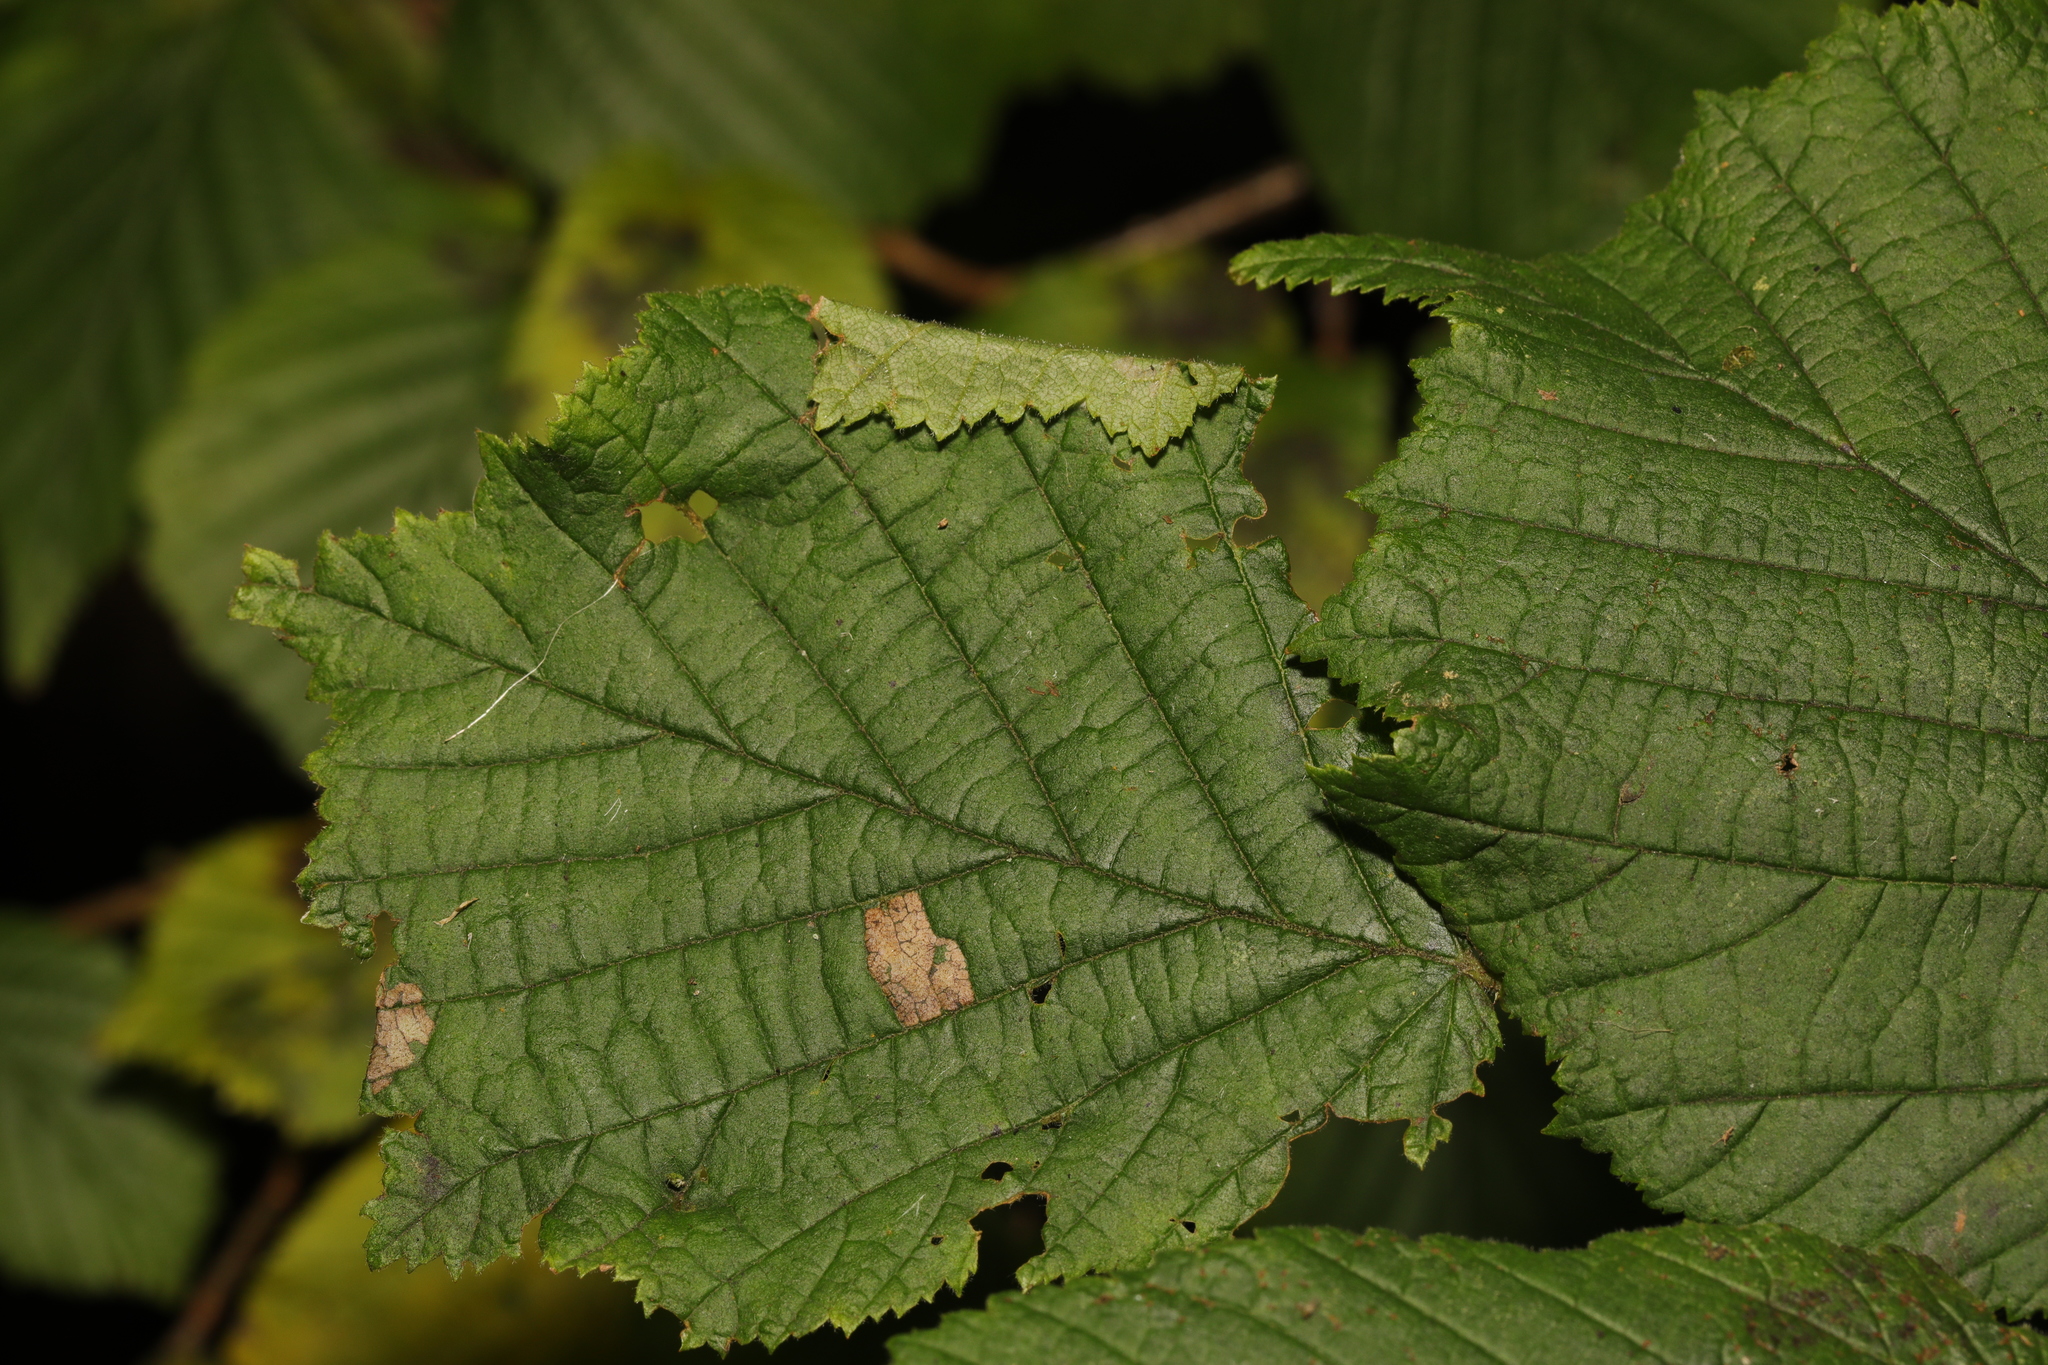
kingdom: Animalia
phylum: Arthropoda
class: Insecta
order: Lepidoptera
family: Gracillariidae
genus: Parornix
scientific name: Parornix devoniella
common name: Hazel slender
